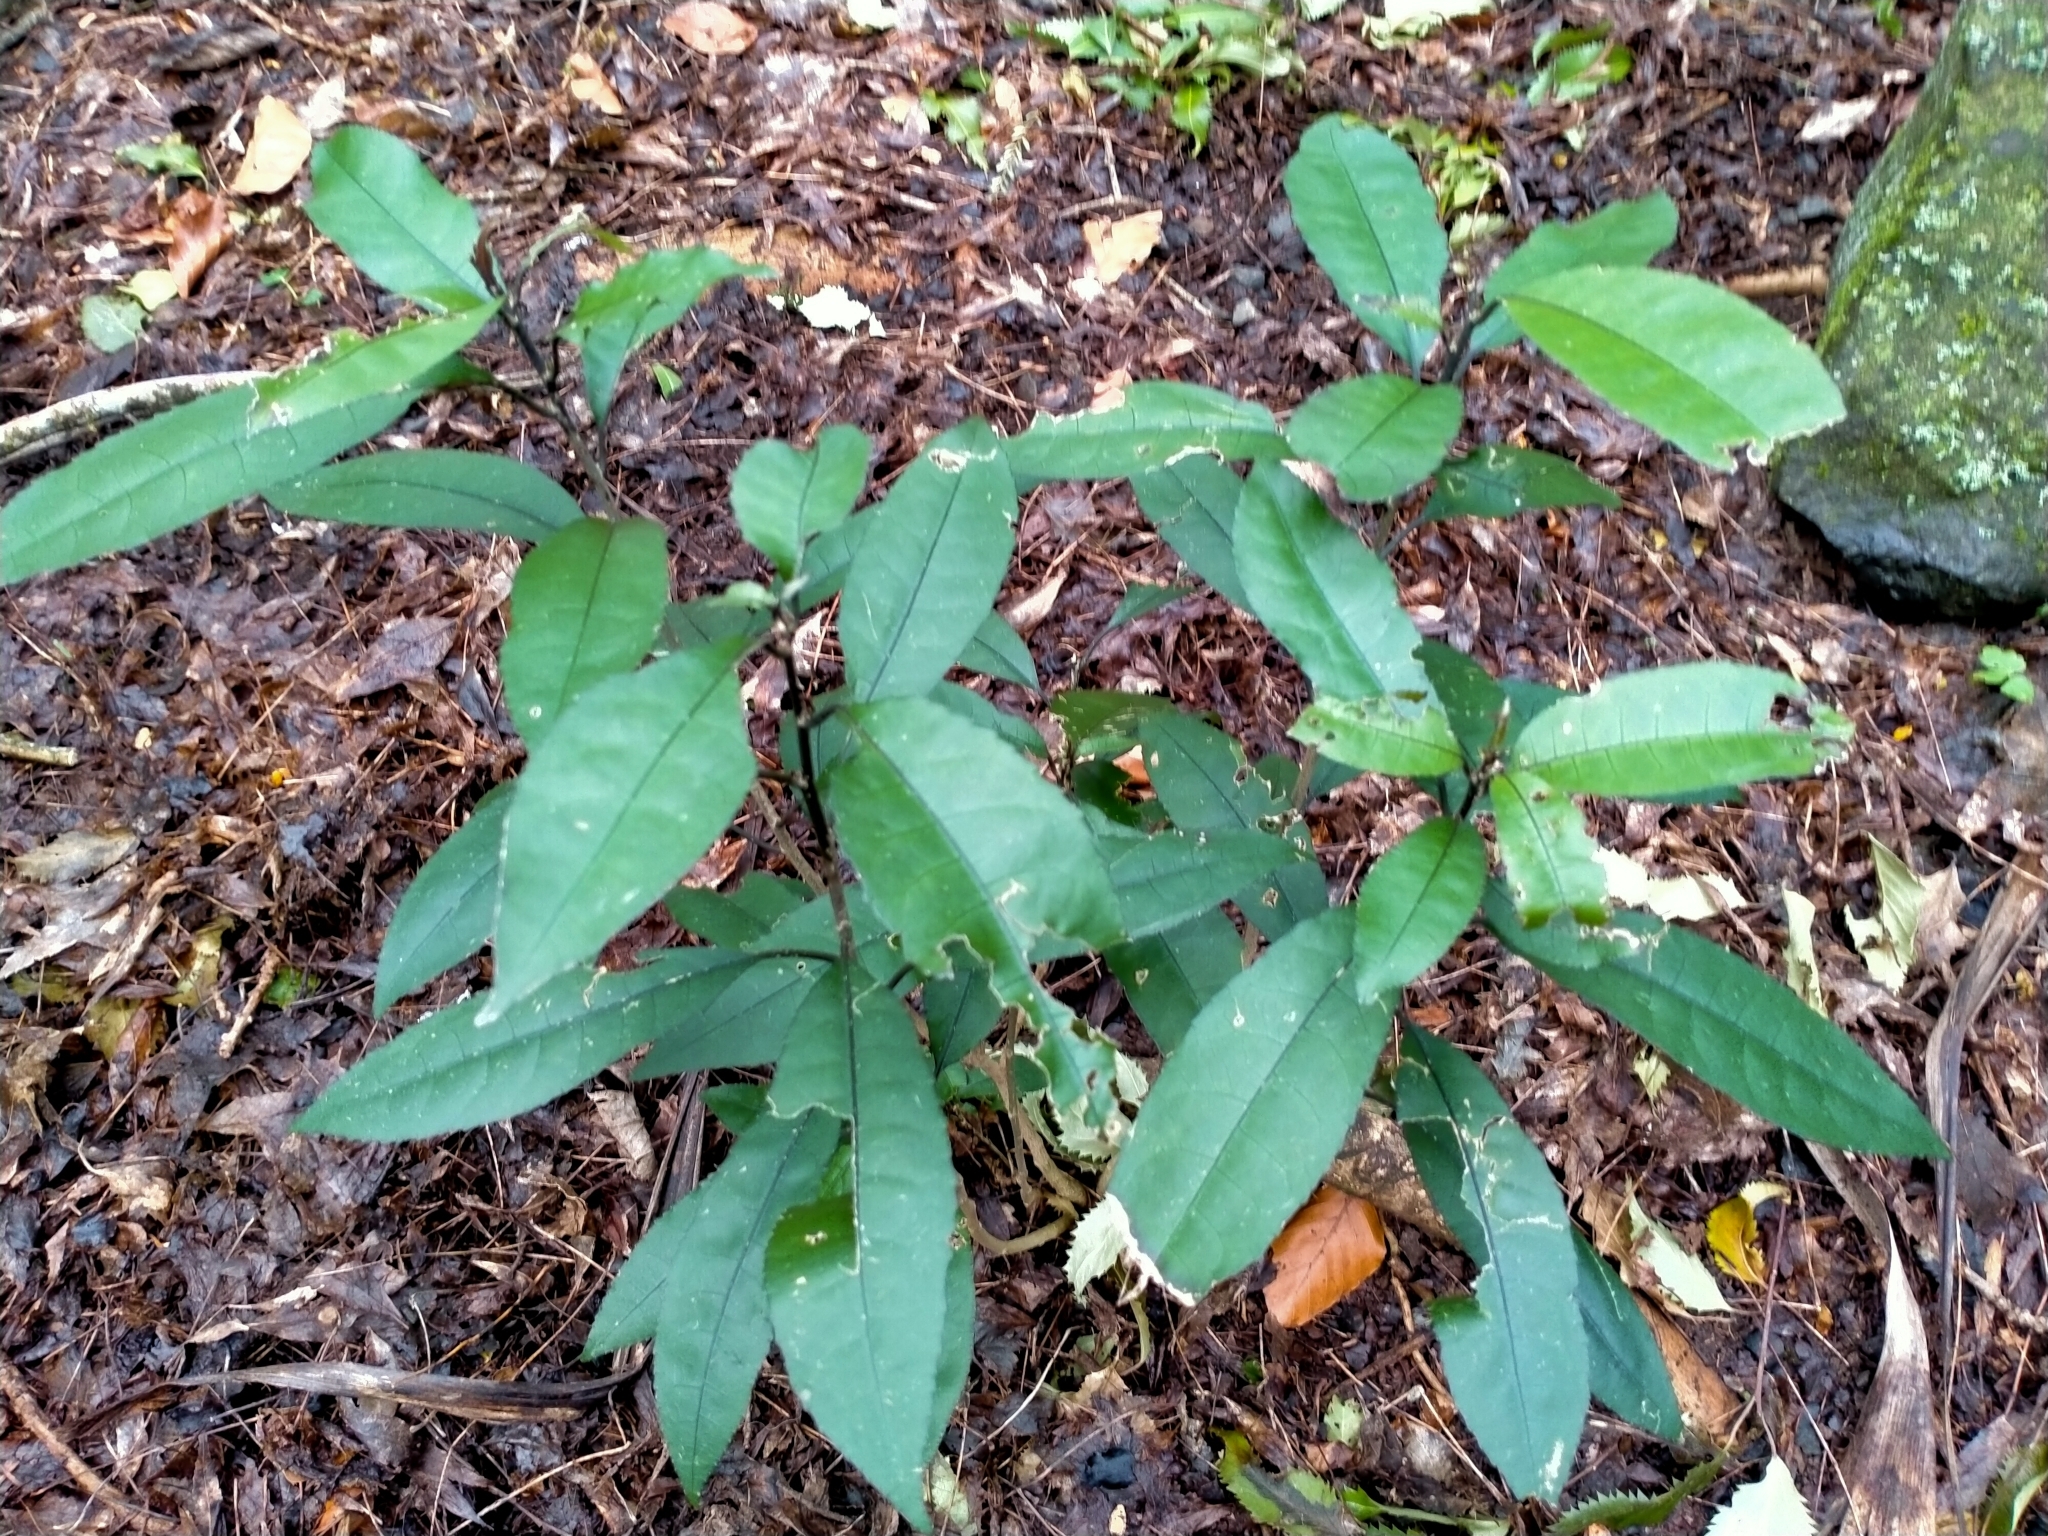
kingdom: Plantae
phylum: Tracheophyta
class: Magnoliopsida
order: Malpighiales
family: Violaceae
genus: Melicytus
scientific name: Melicytus ramiflorus
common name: Mahoe
